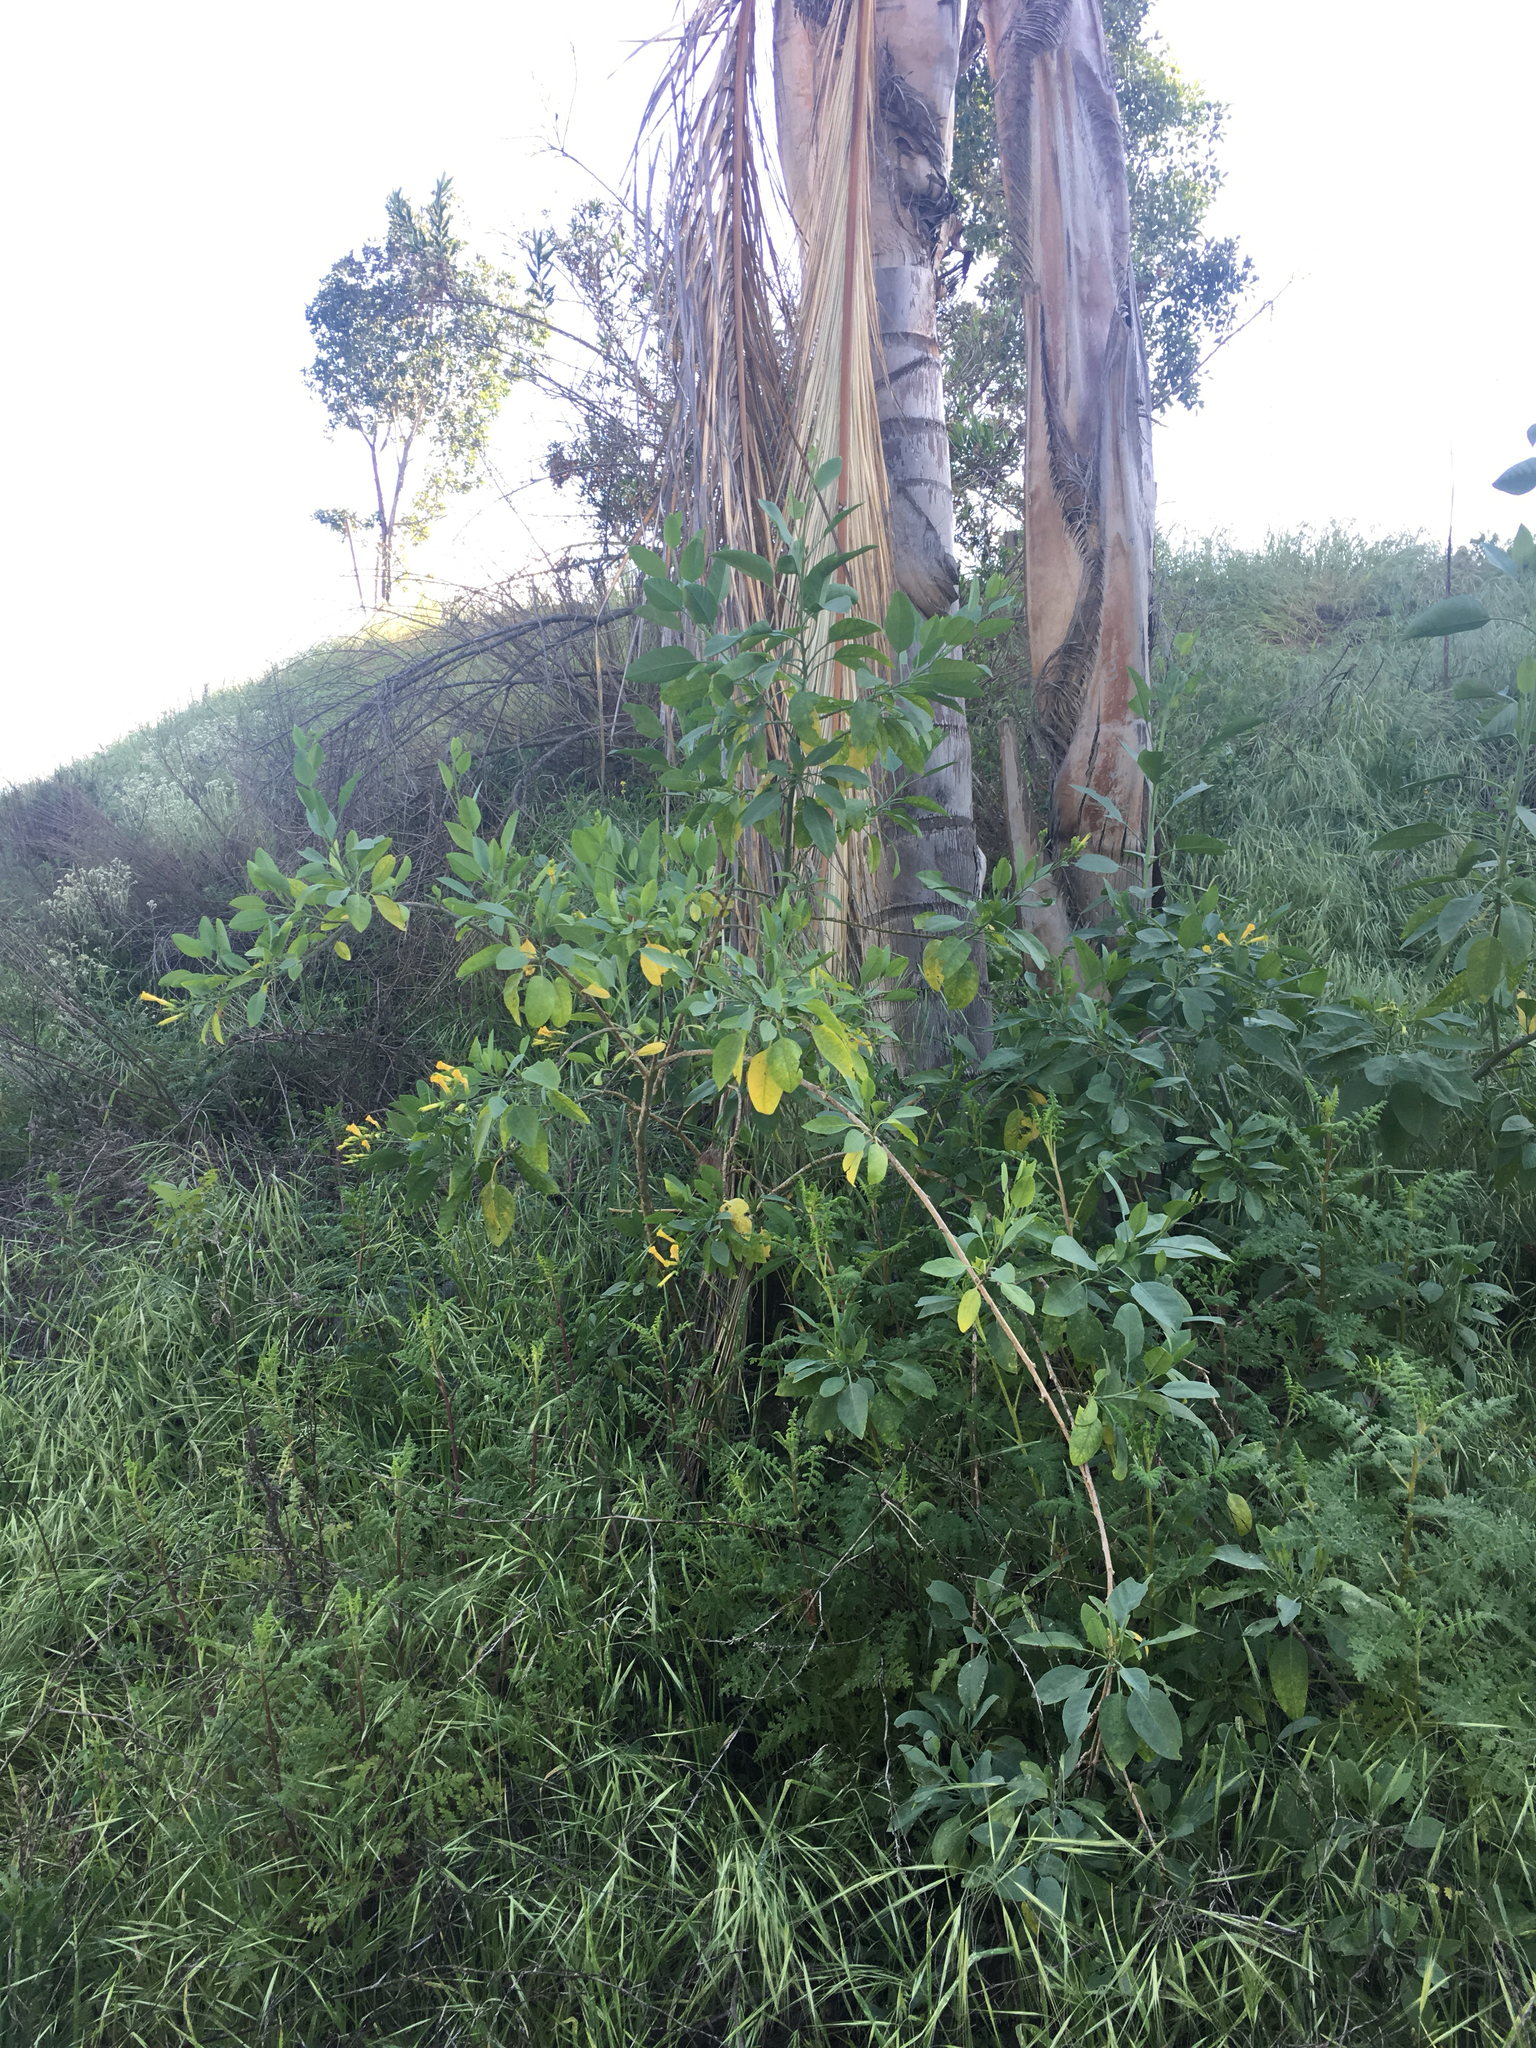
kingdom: Plantae
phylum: Tracheophyta
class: Magnoliopsida
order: Solanales
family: Solanaceae
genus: Nicotiana
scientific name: Nicotiana glauca
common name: Tree tobacco
